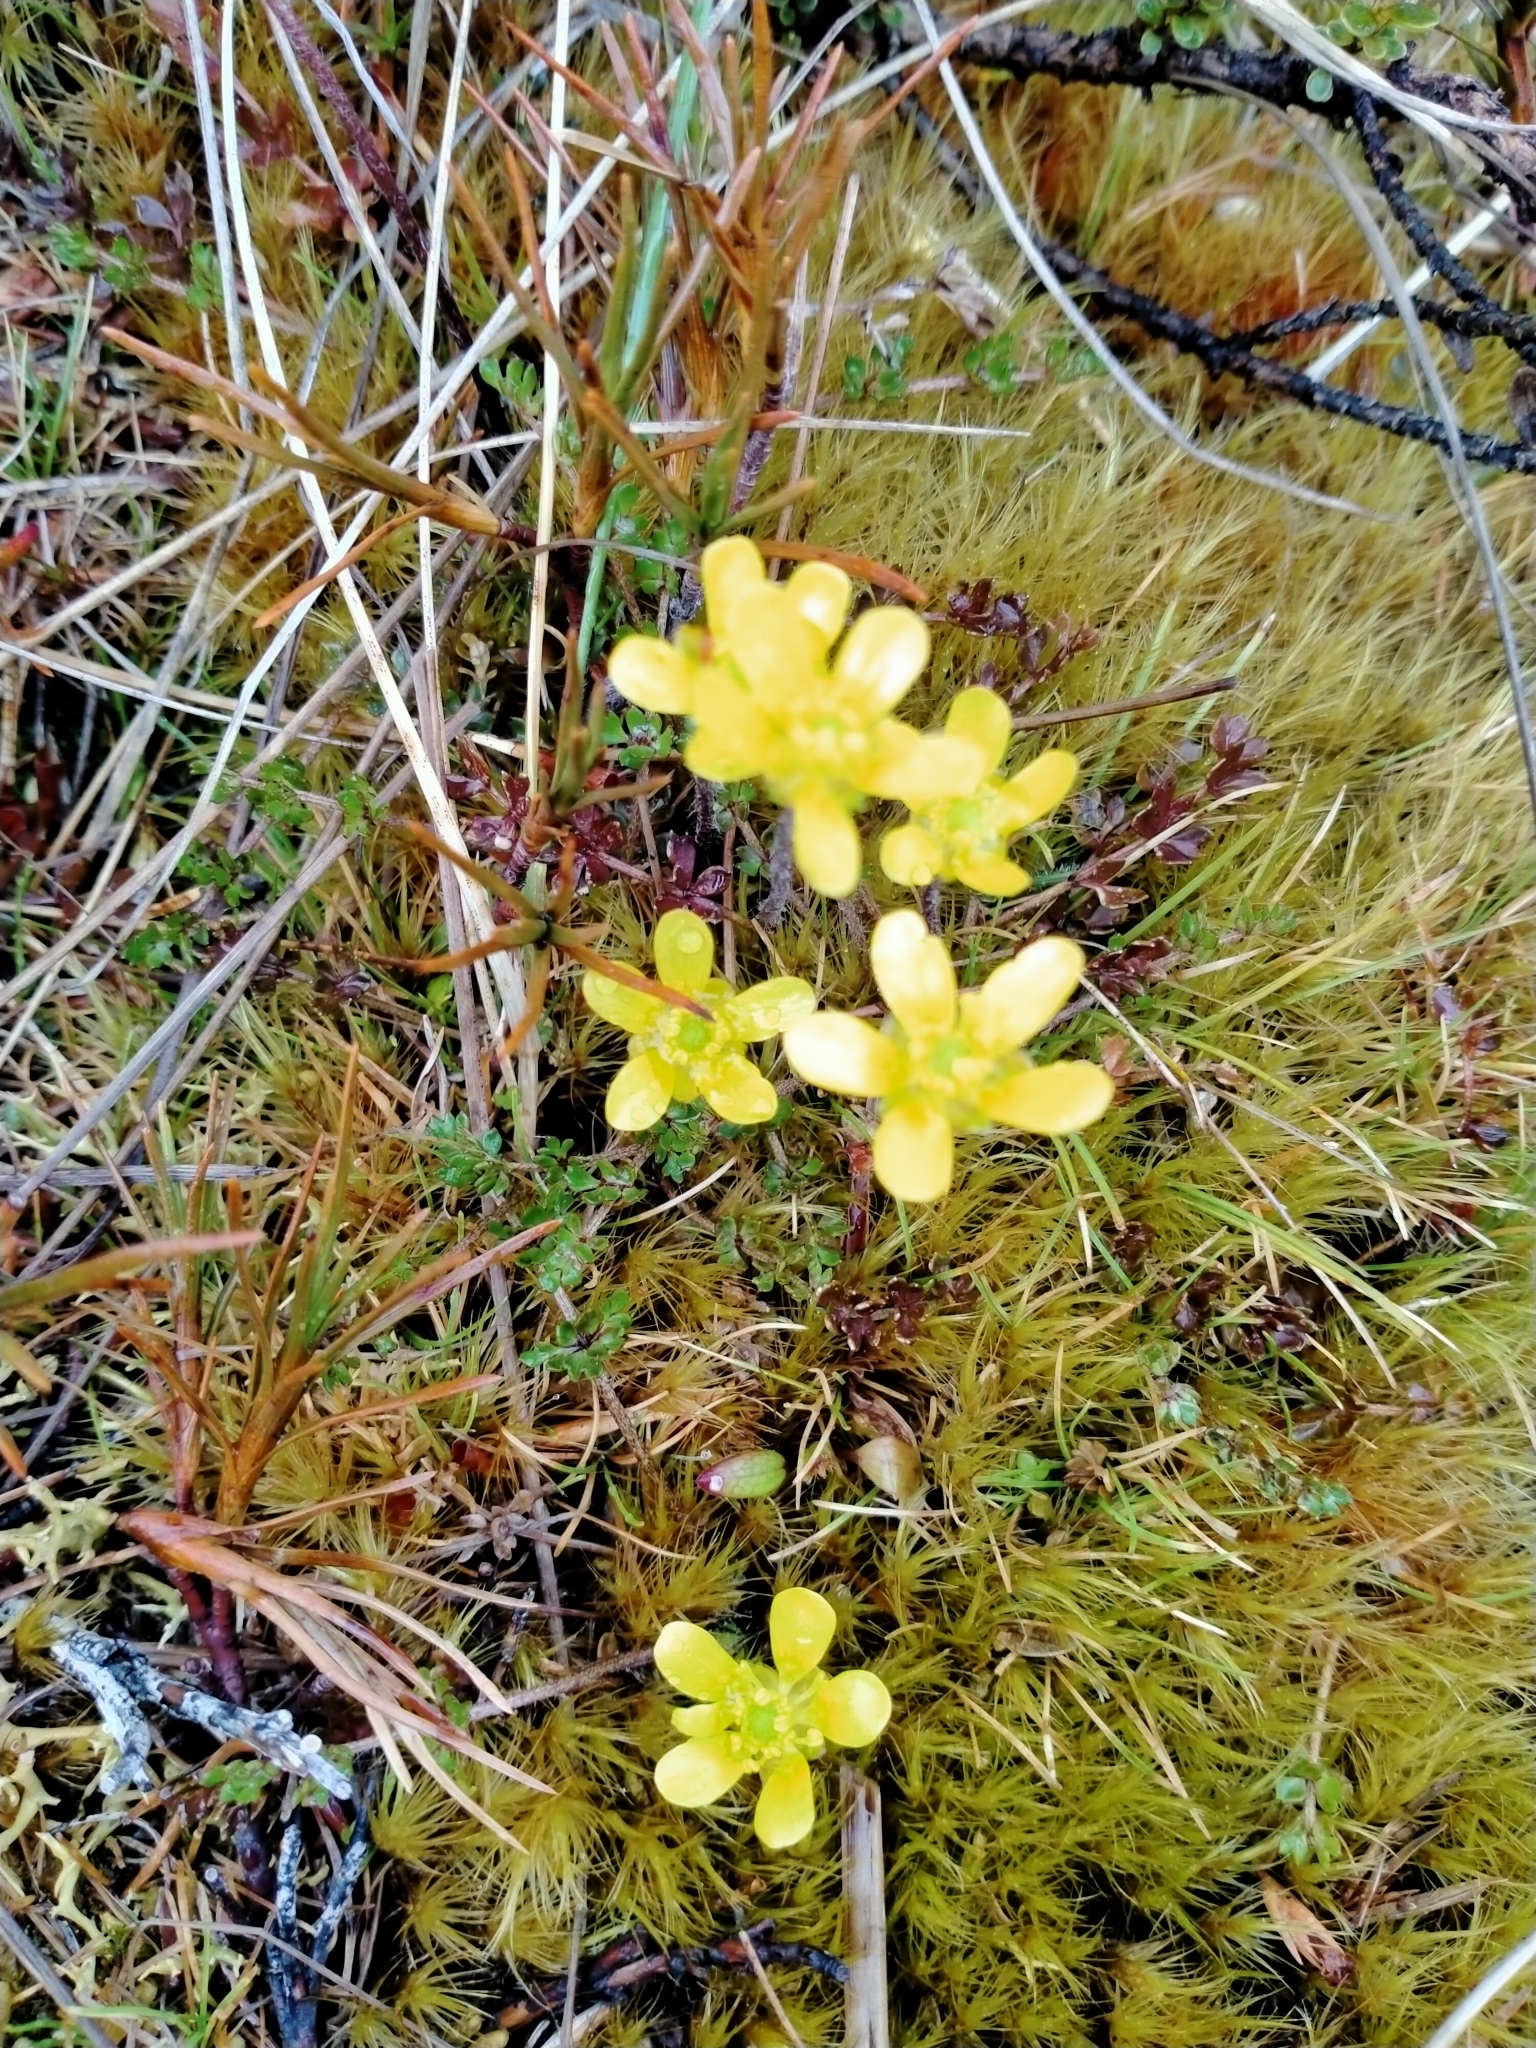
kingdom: Plantae
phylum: Tracheophyta
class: Magnoliopsida
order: Ranunculales
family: Ranunculaceae
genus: Ranunculus
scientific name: Ranunculus gracilipes
